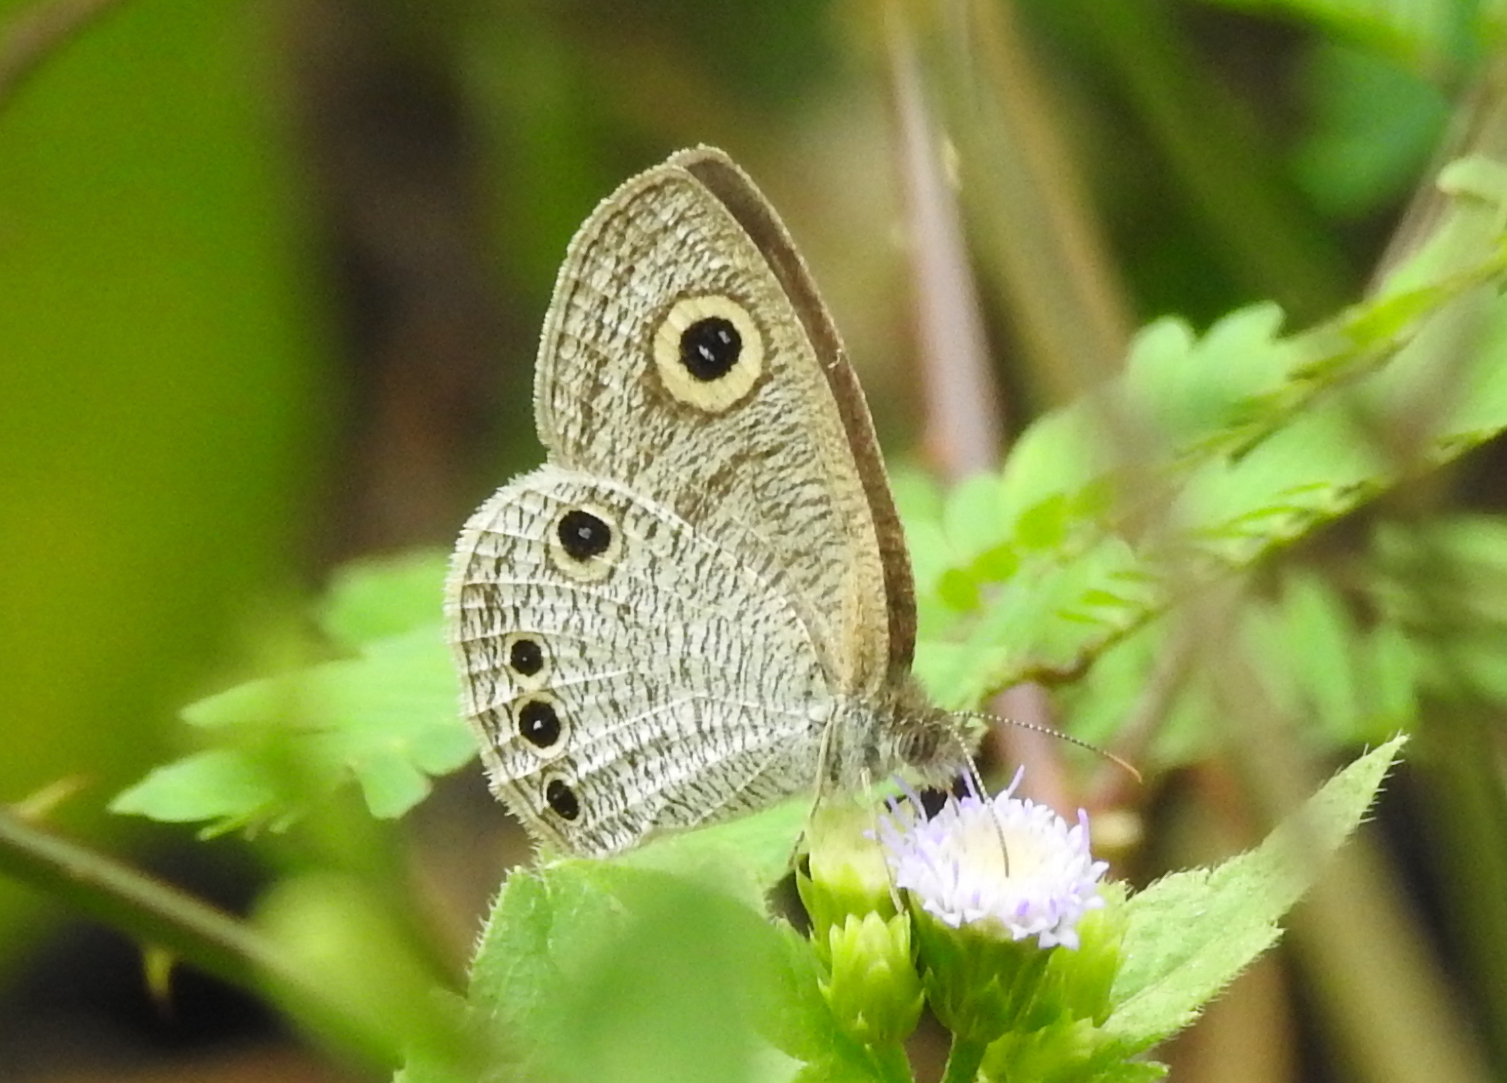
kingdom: Animalia
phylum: Arthropoda
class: Insecta
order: Lepidoptera
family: Nymphalidae
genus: Ypthima
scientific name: Ypthima huebneri
